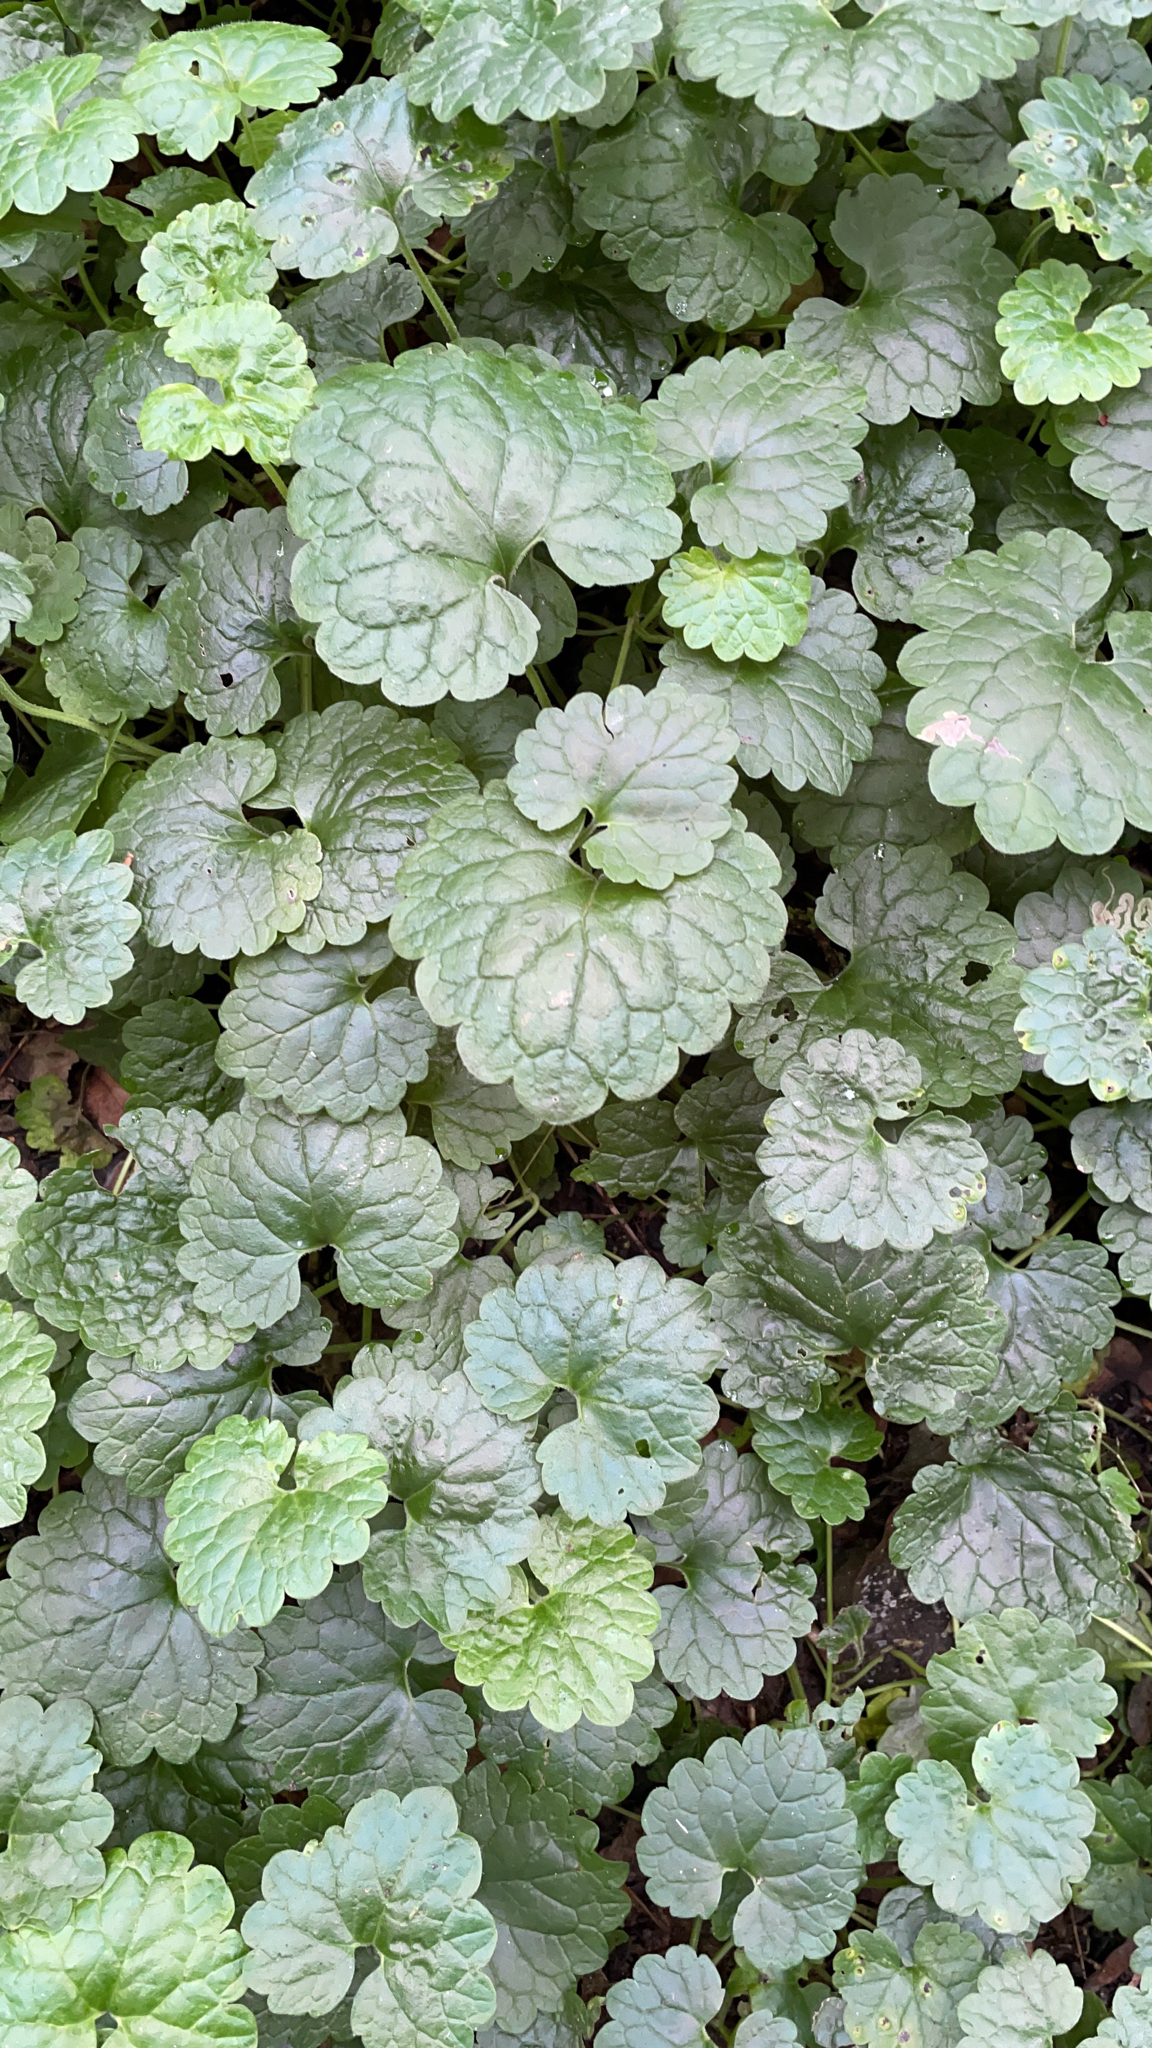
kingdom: Plantae
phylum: Tracheophyta
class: Magnoliopsida
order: Lamiales
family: Lamiaceae
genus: Glechoma
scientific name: Glechoma hederacea
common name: Ground ivy
